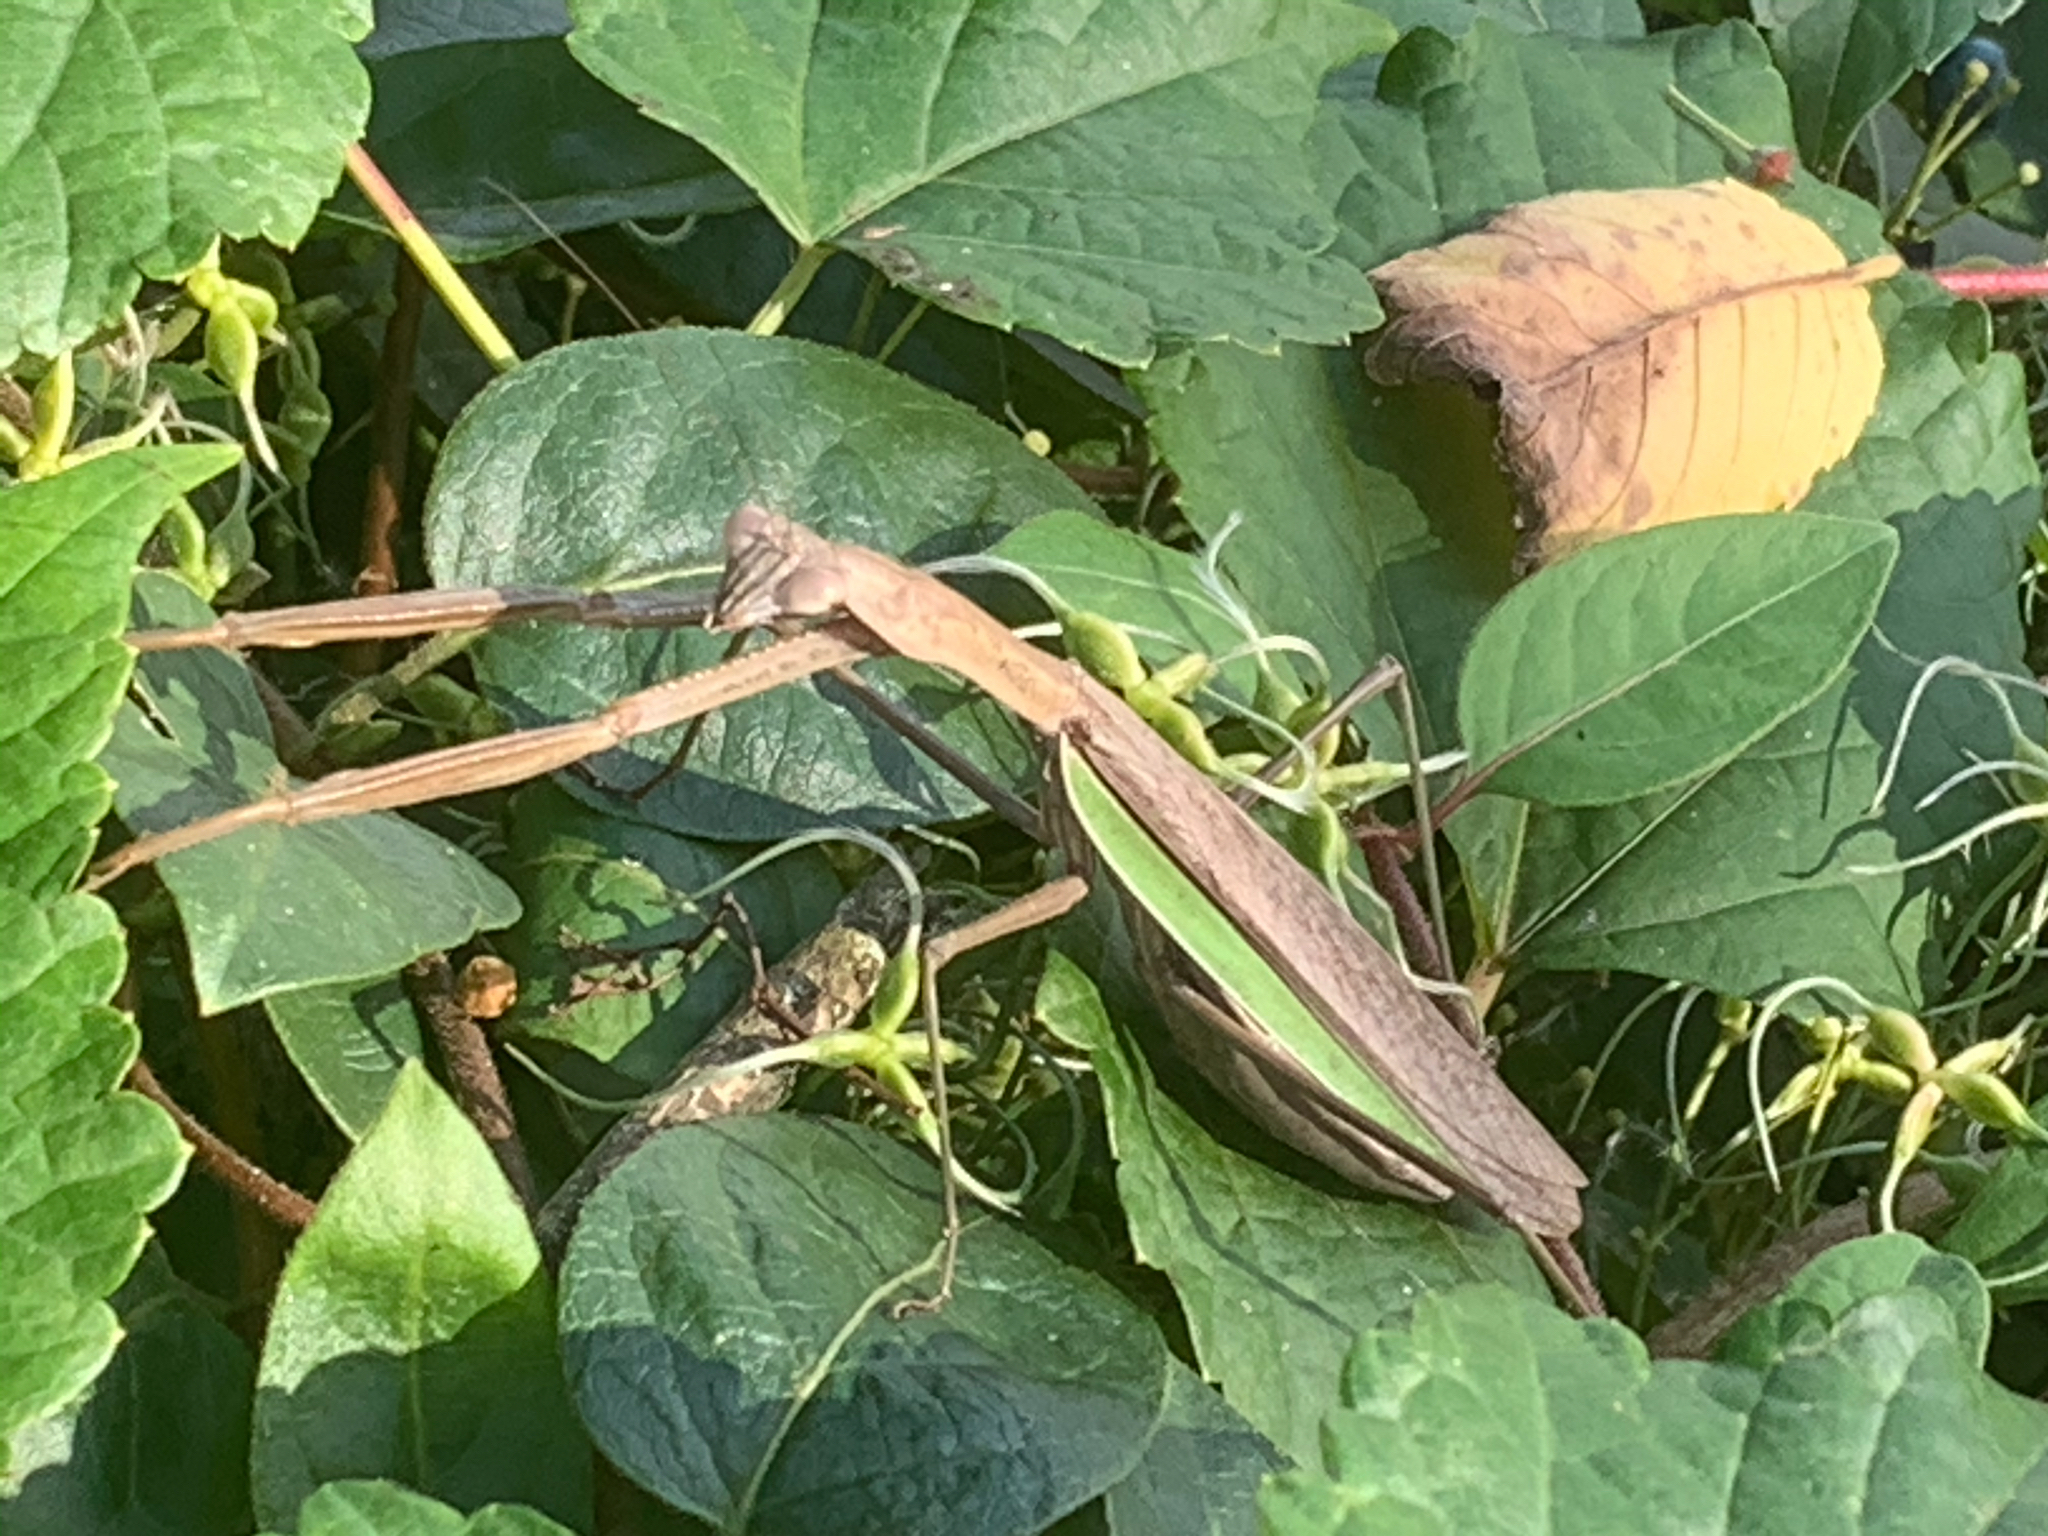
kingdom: Animalia
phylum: Arthropoda
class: Insecta
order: Mantodea
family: Mantidae
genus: Tenodera
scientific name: Tenodera sinensis
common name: Chinese mantis
